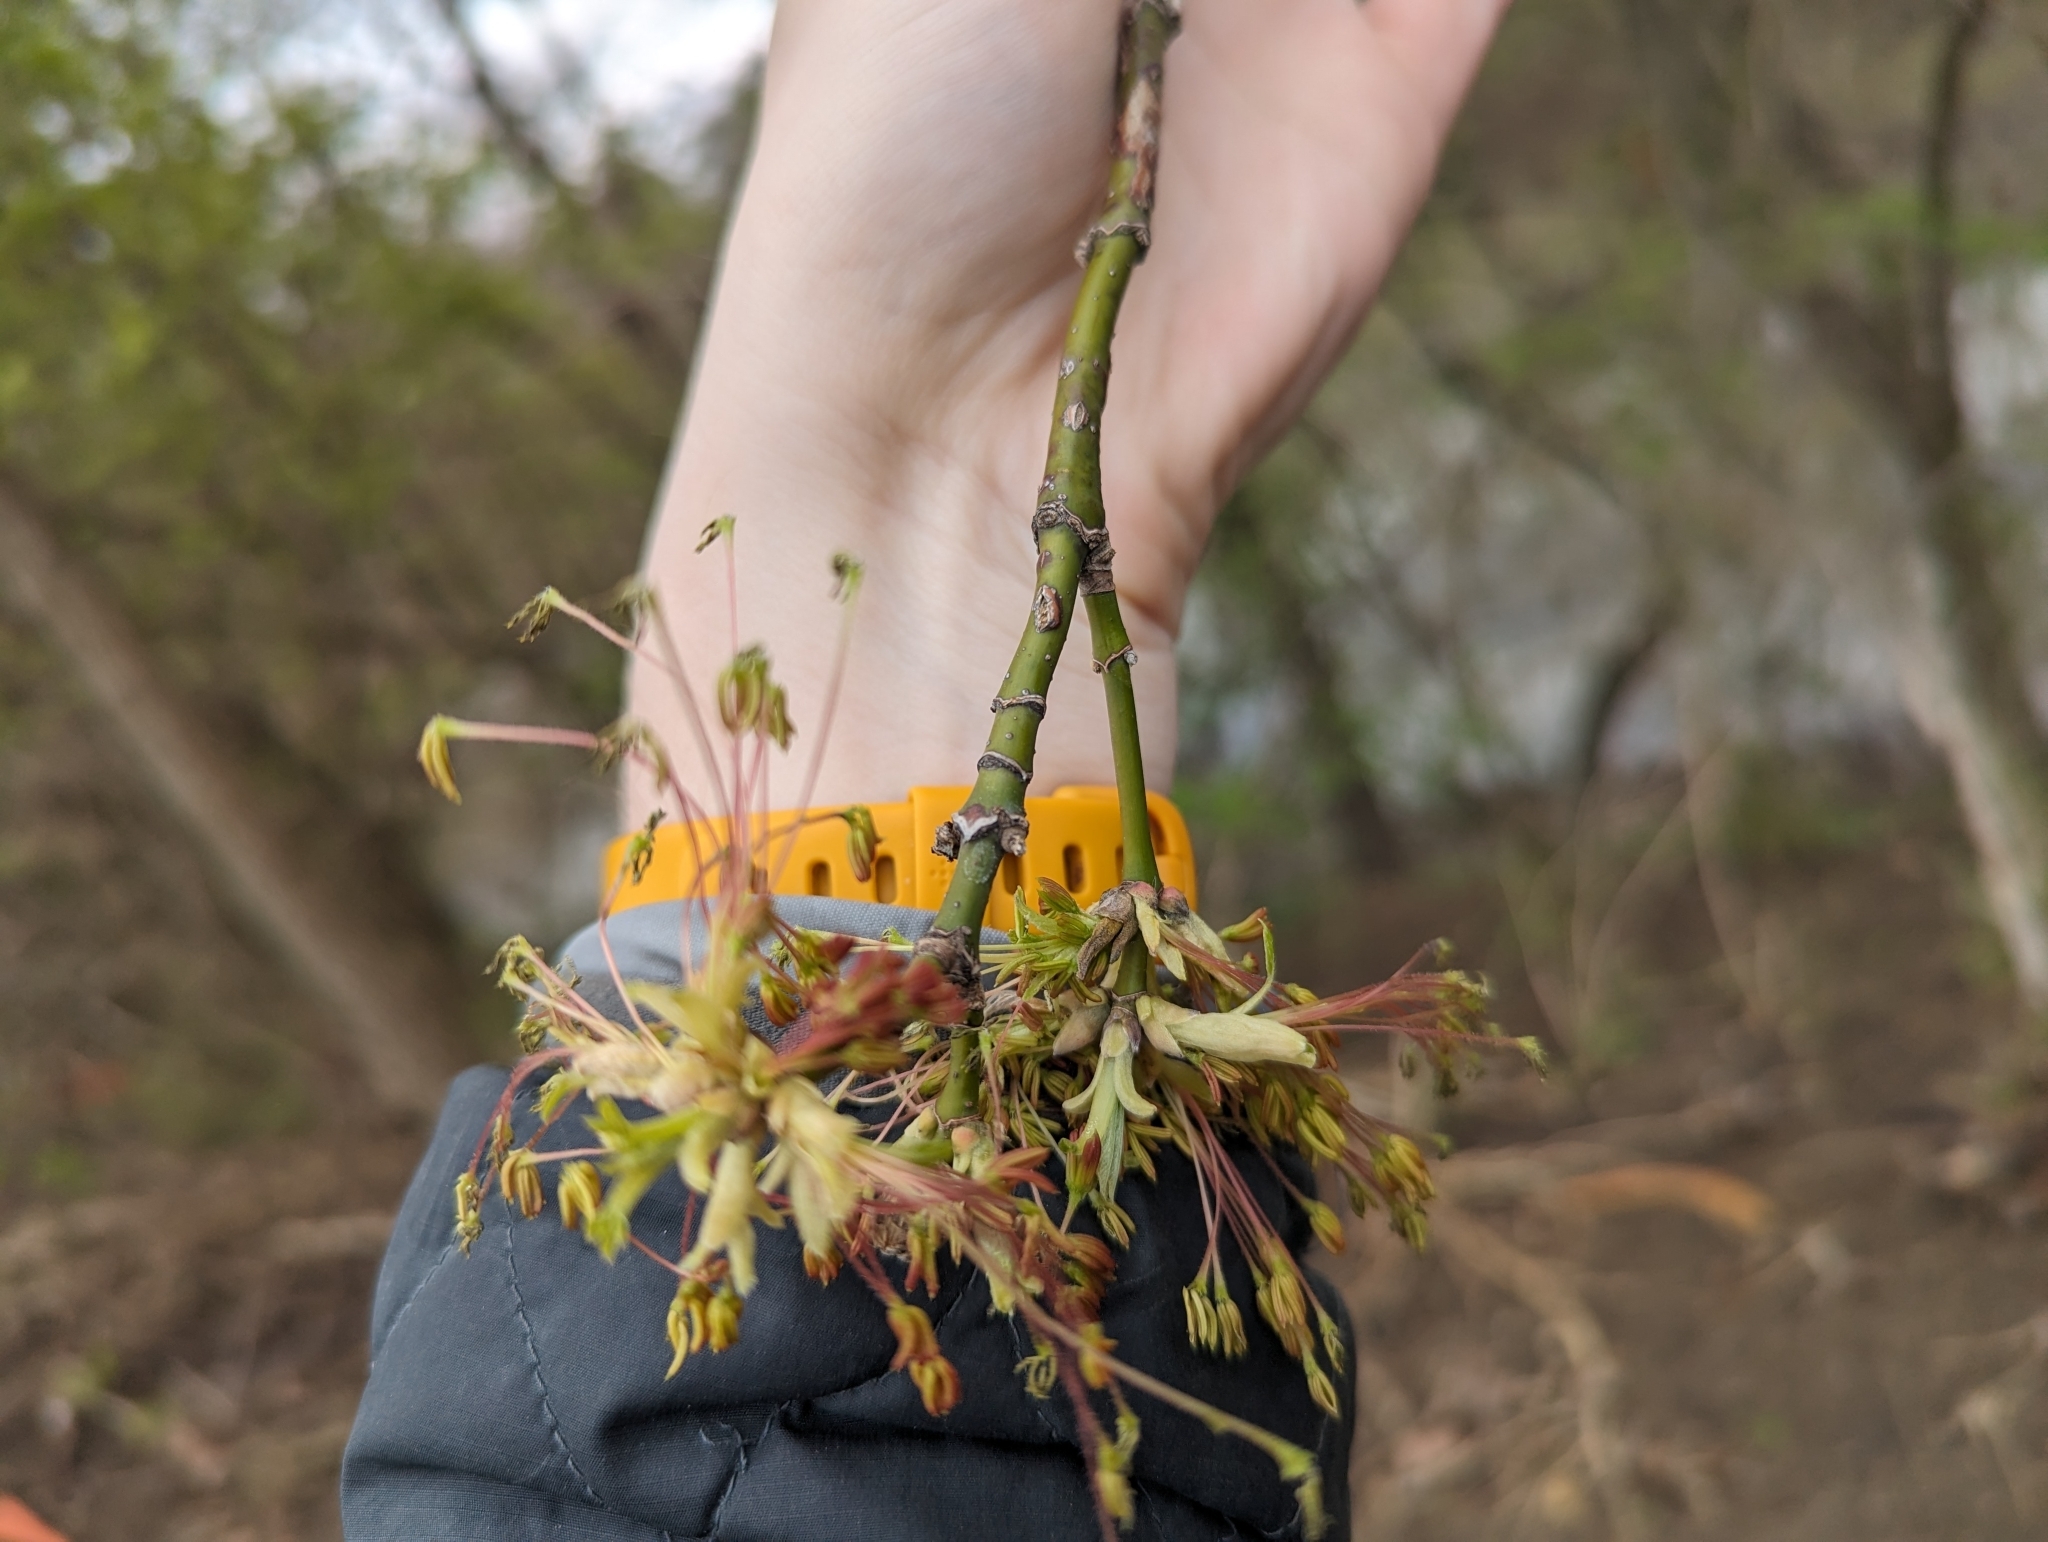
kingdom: Plantae
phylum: Tracheophyta
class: Magnoliopsida
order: Sapindales
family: Sapindaceae
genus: Acer
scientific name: Acer negundo
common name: Ashleaf maple
